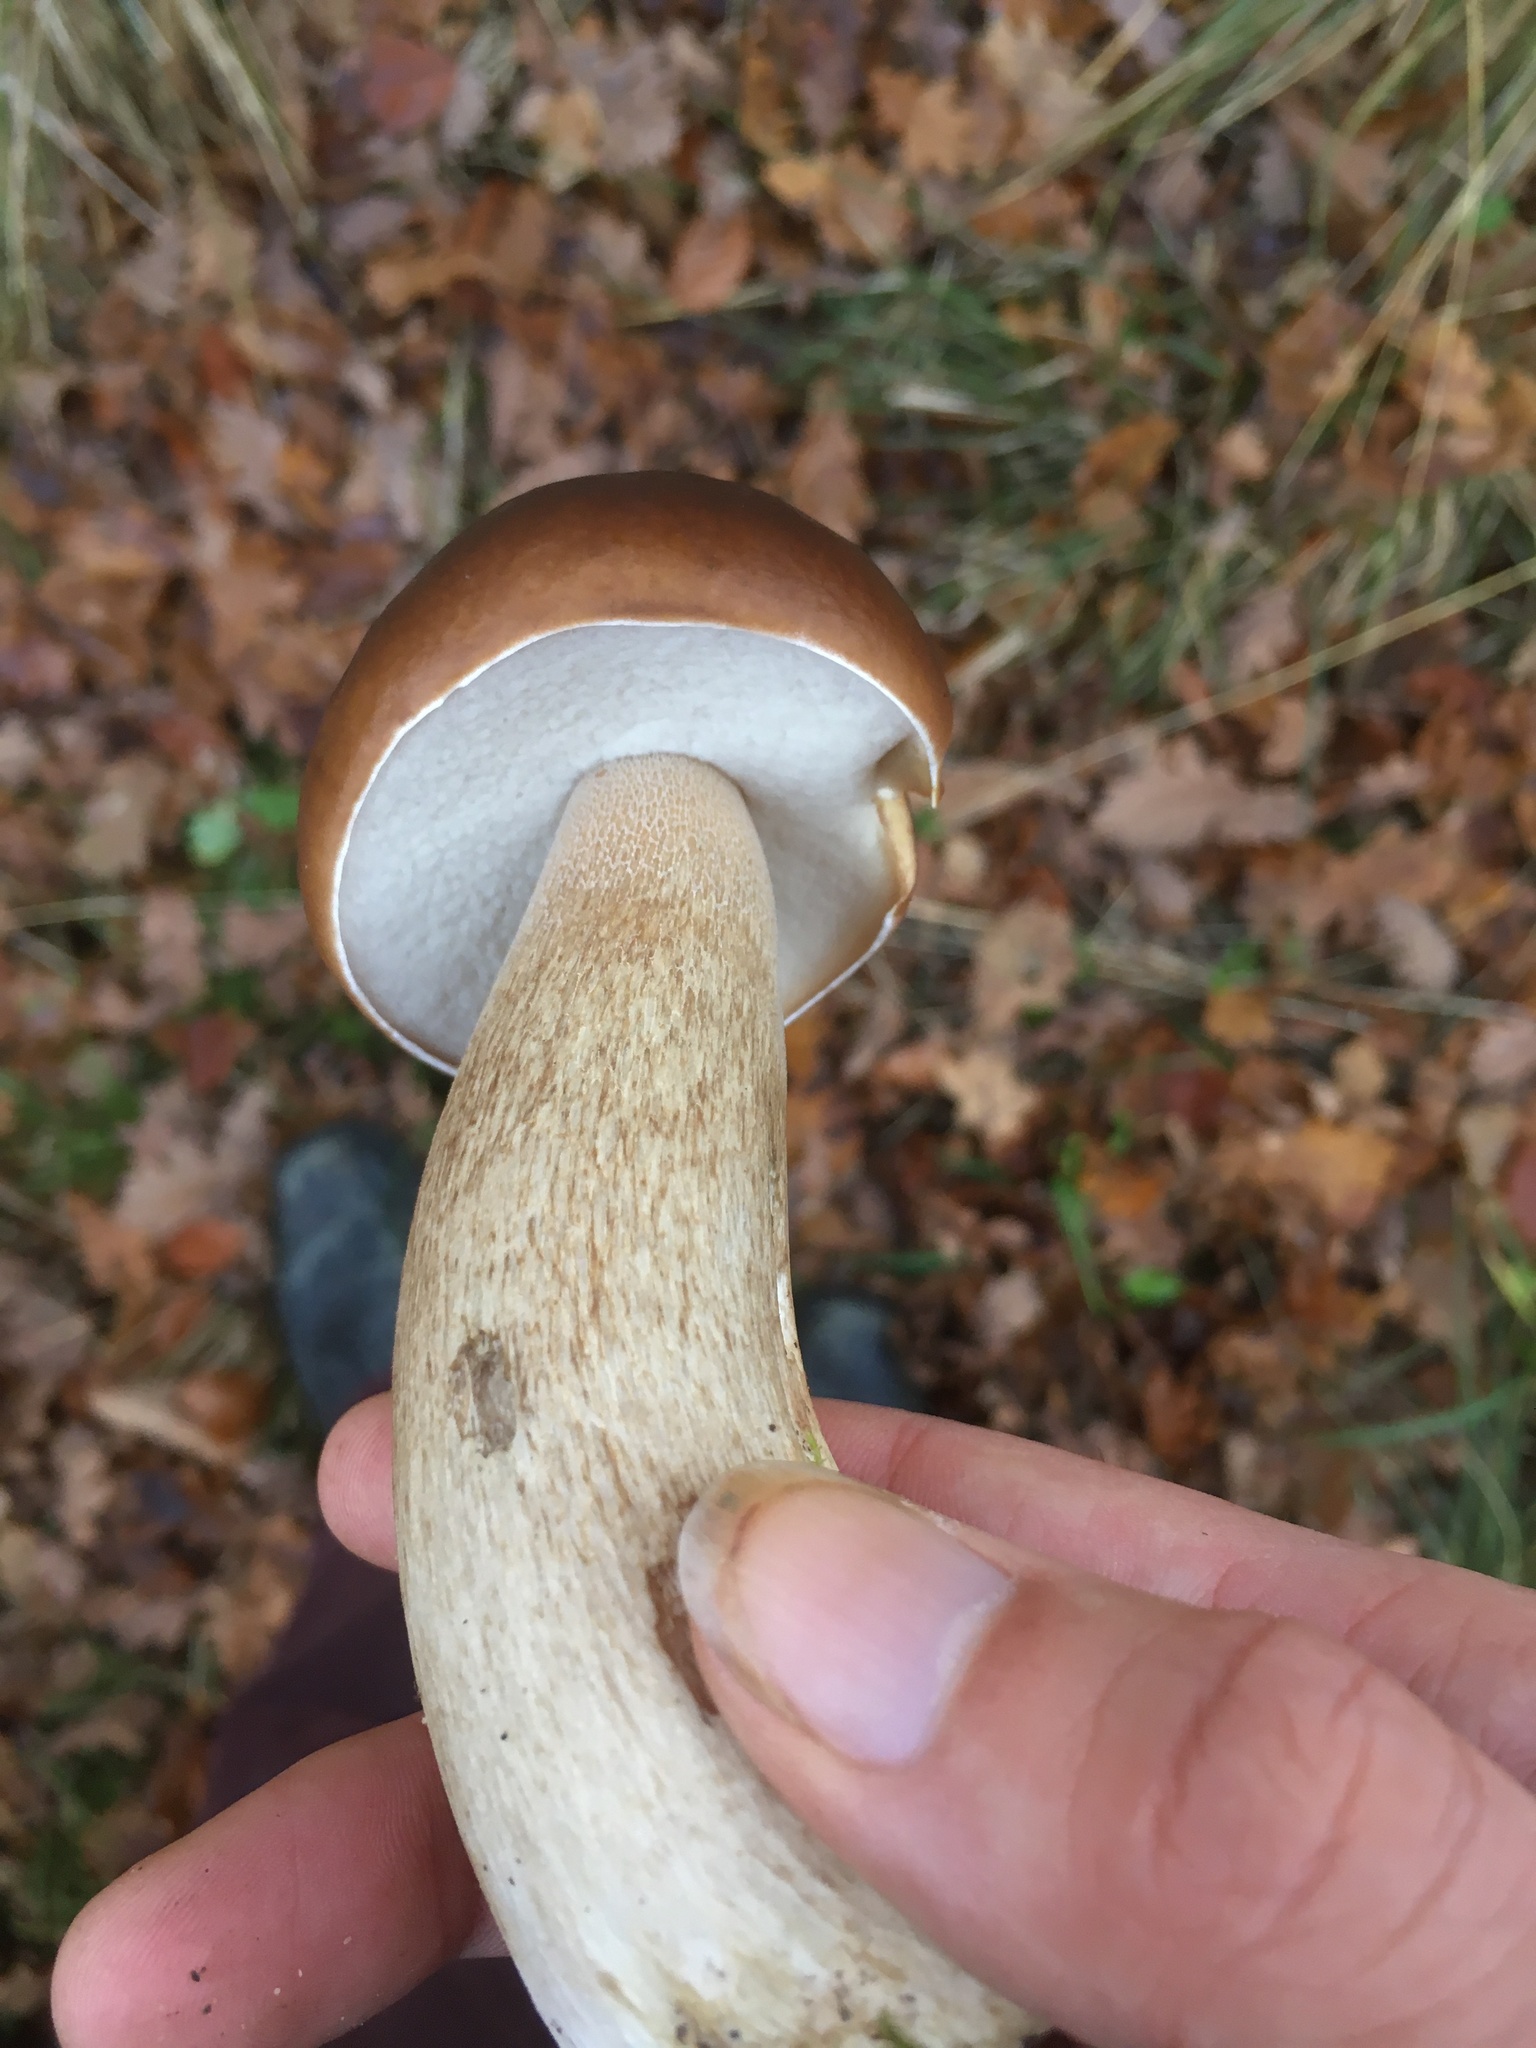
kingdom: Fungi
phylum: Basidiomycota
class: Agaricomycetes
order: Boletales
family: Boletaceae
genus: Boletus
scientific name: Boletus edulis
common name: Cep
